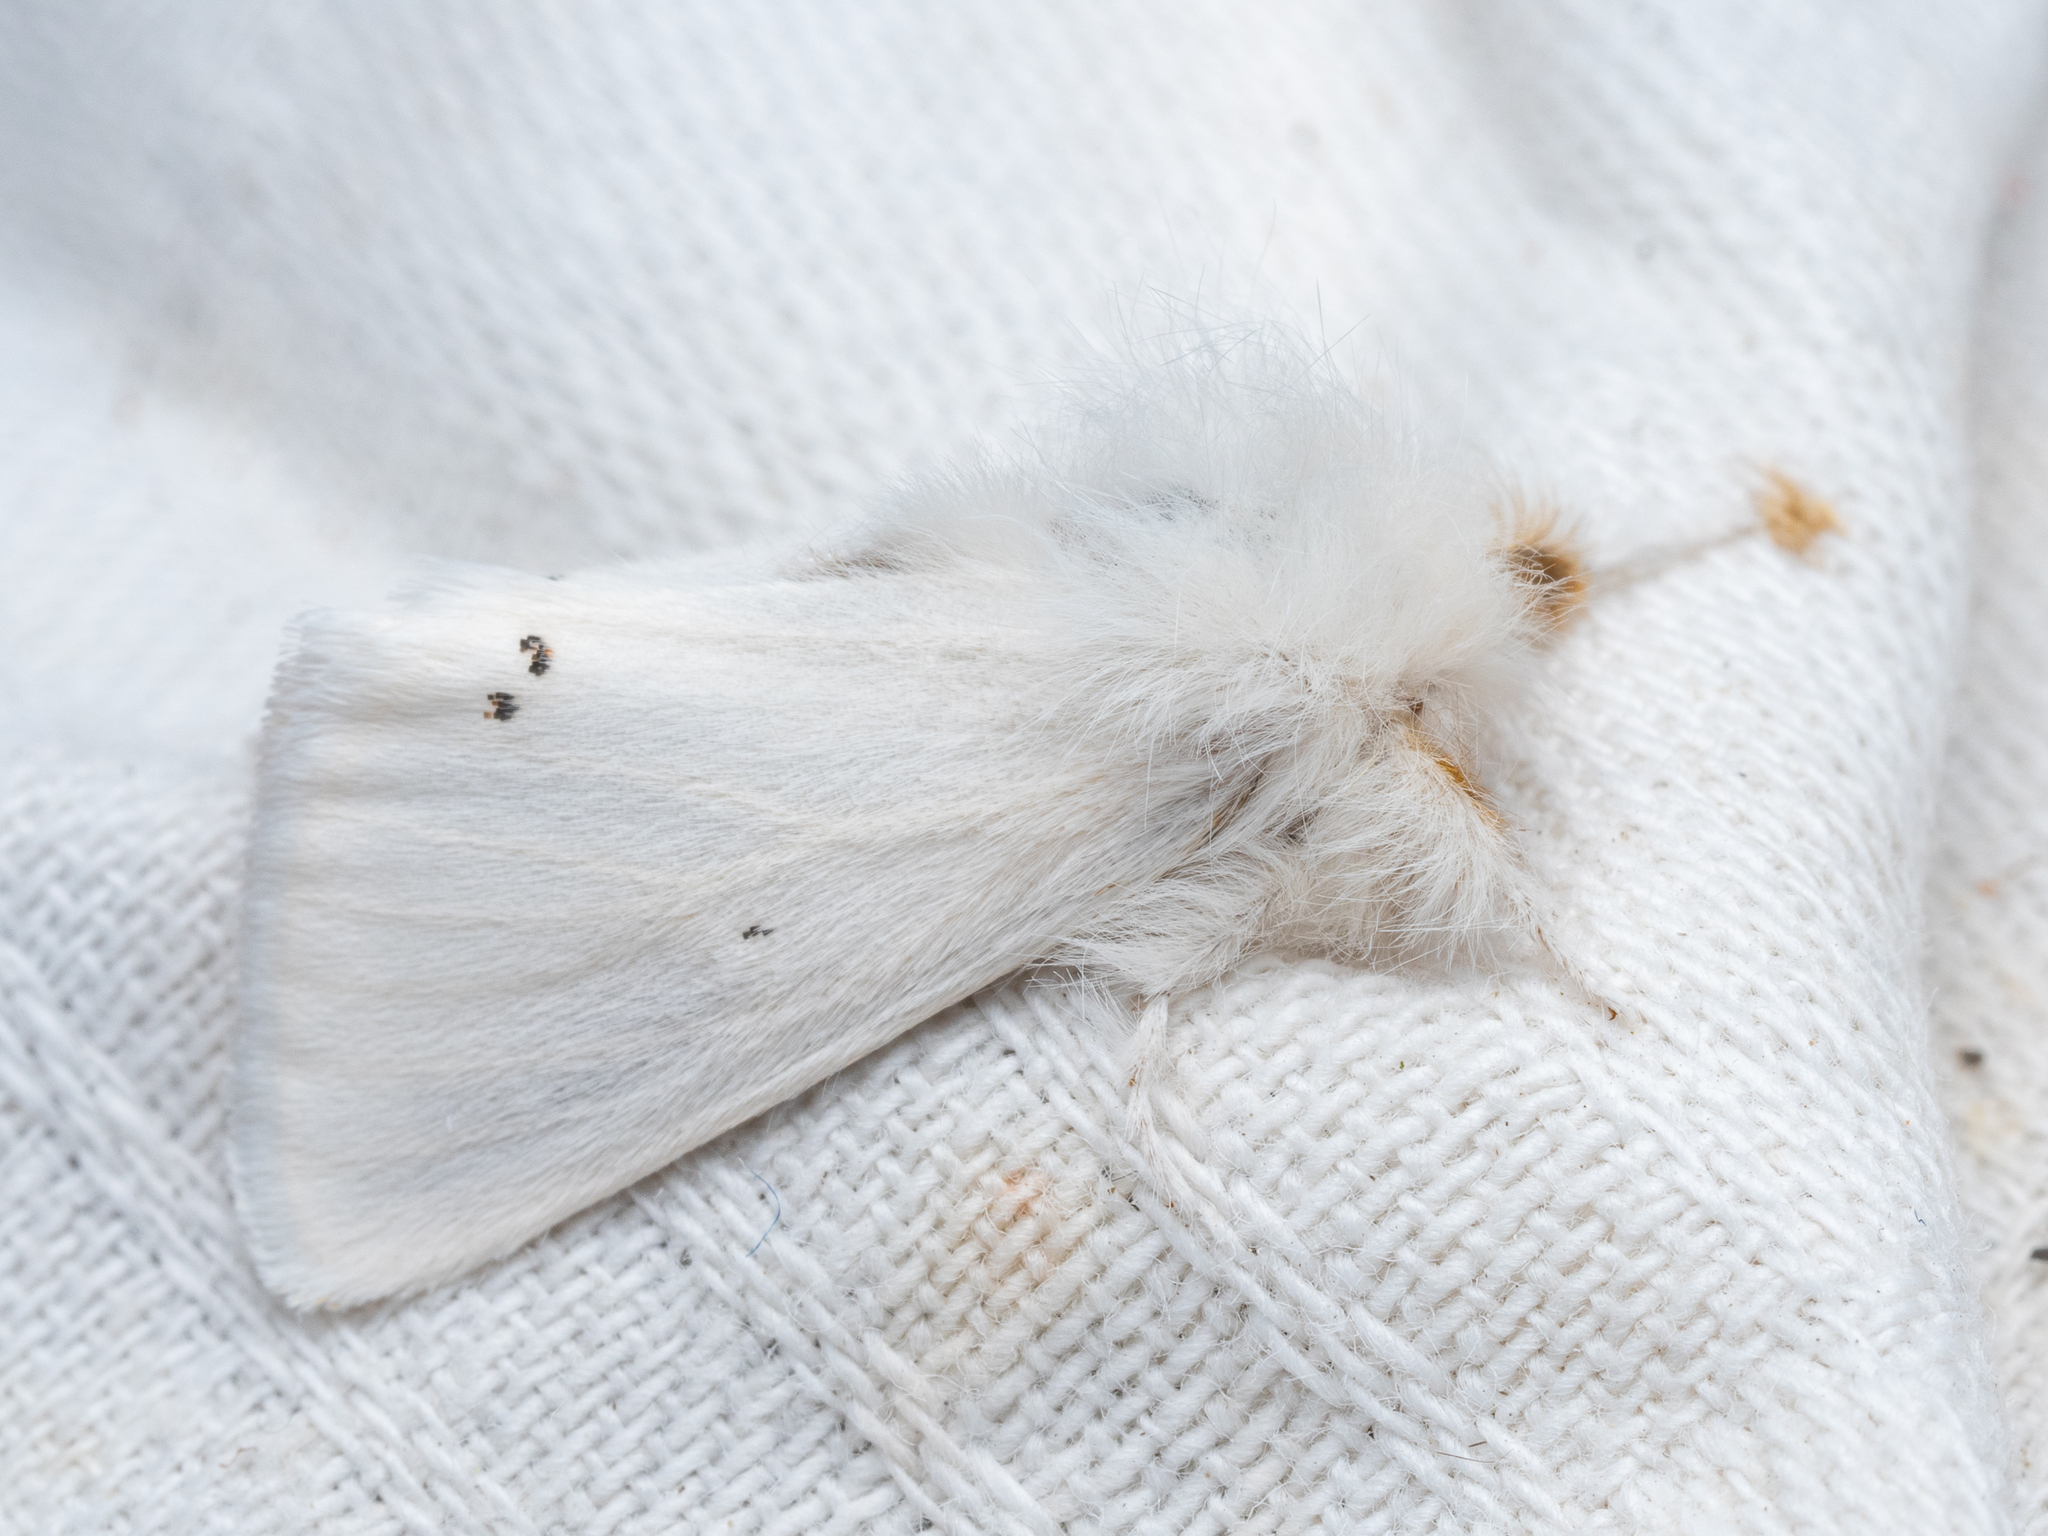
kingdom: Animalia
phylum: Arthropoda
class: Insecta
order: Lepidoptera
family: Erebidae
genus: Euproctis
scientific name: Euproctis chrysorrhoea
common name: Brown-tail
